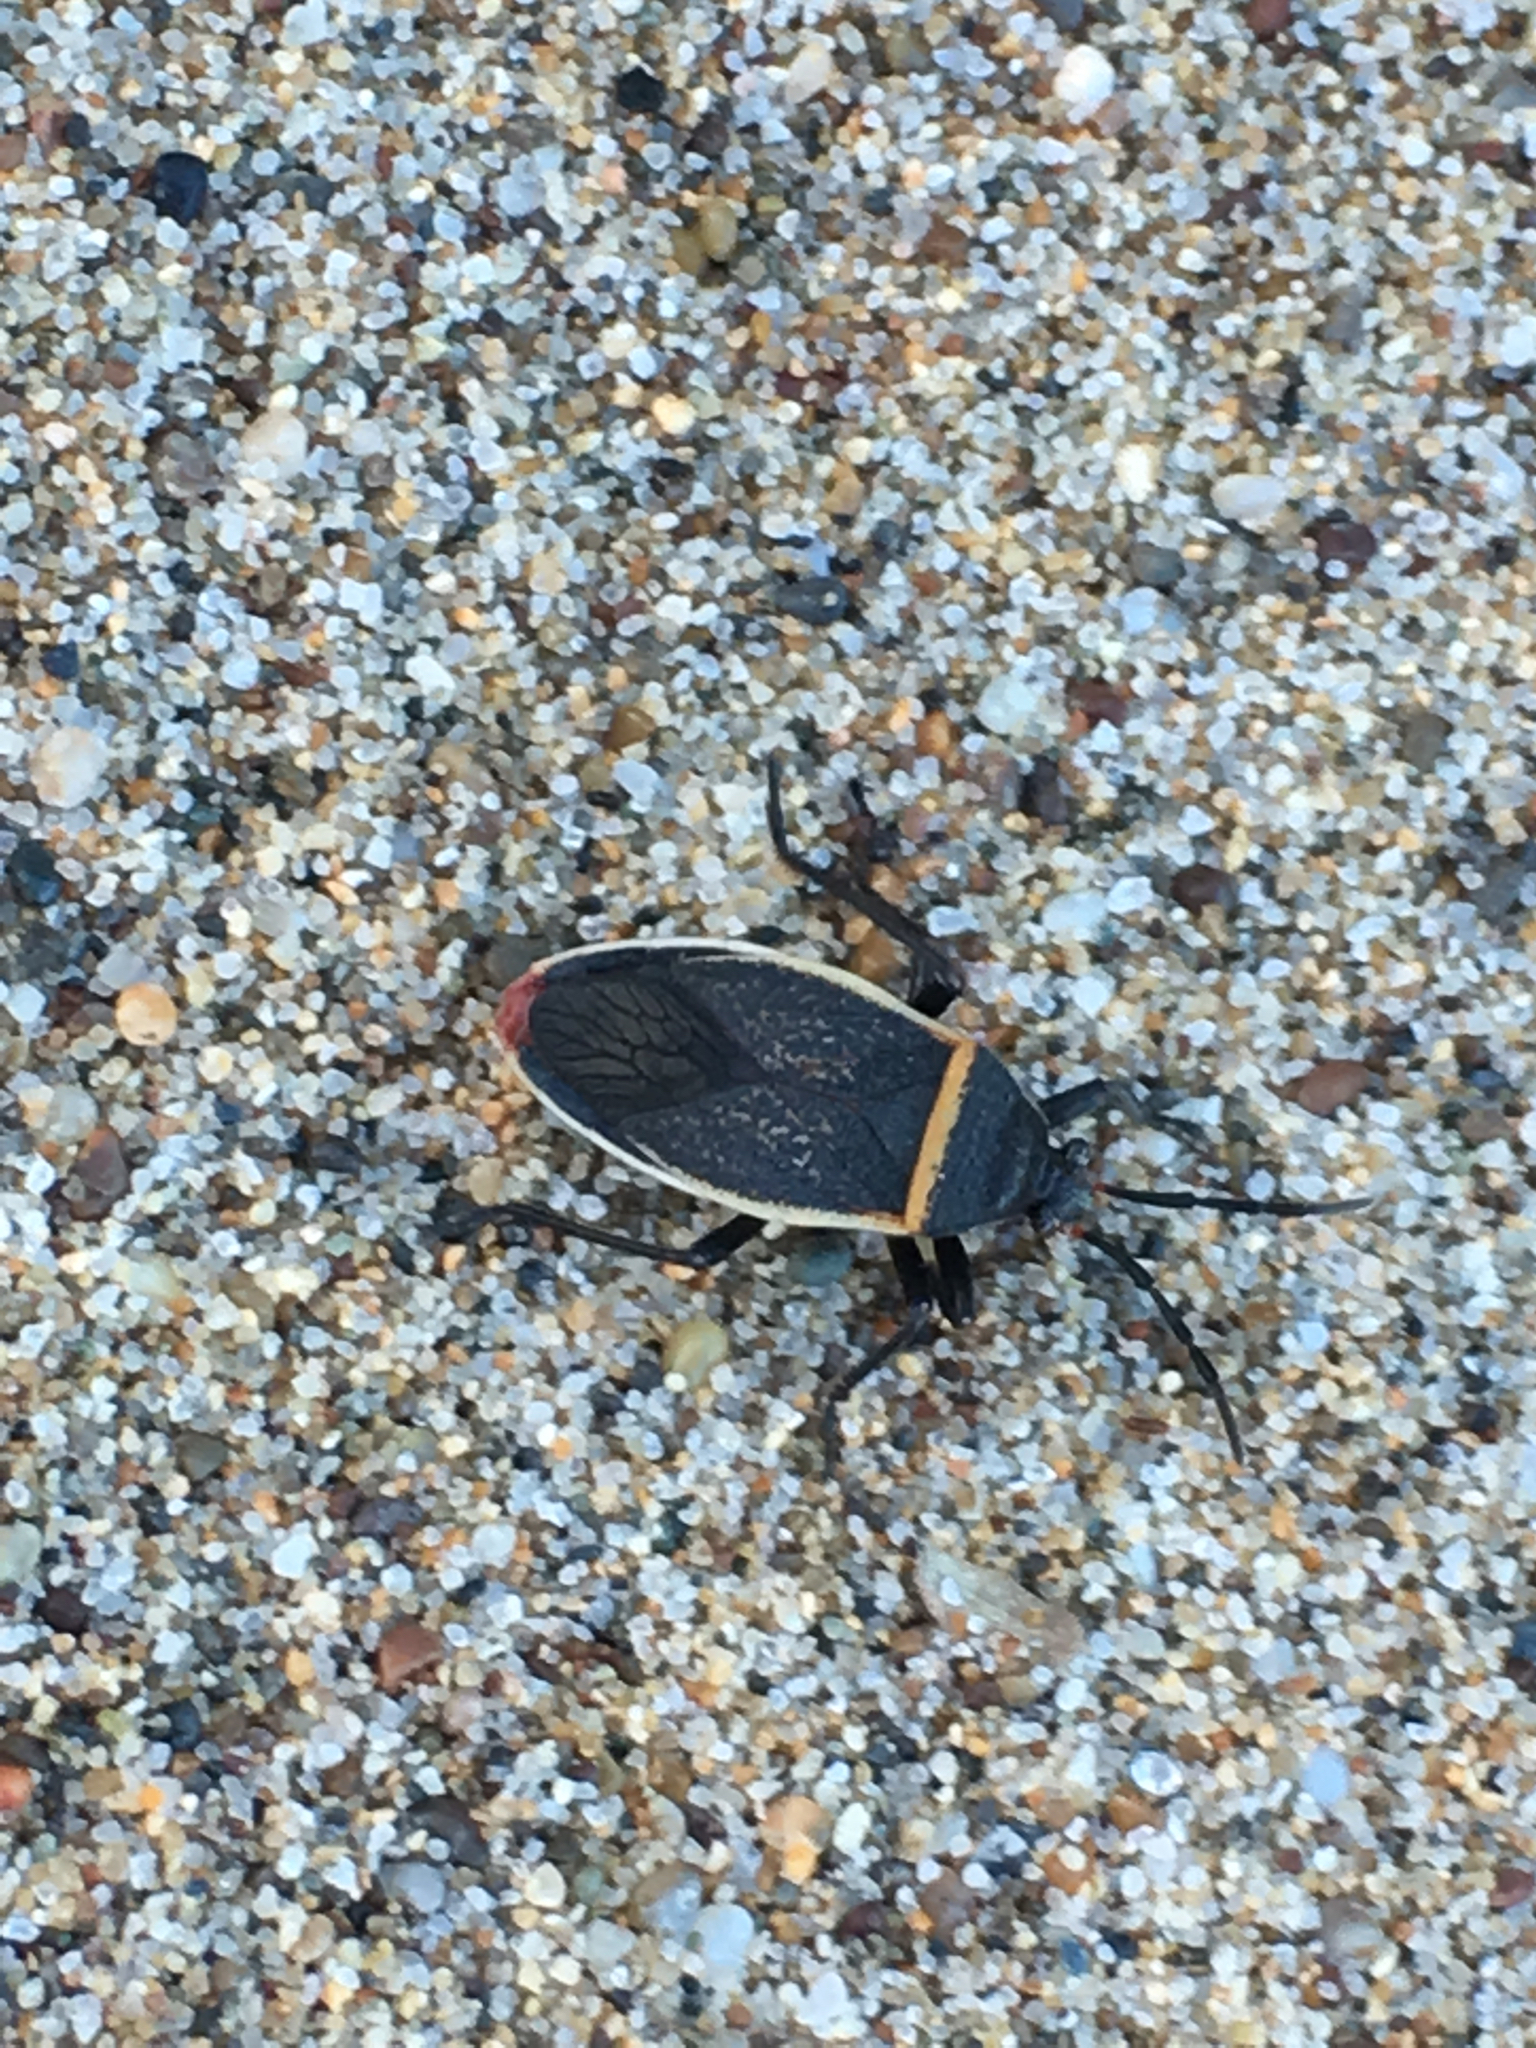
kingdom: Animalia
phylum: Arthropoda
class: Insecta
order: Hemiptera
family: Largidae
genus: Largus
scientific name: Largus californicus
